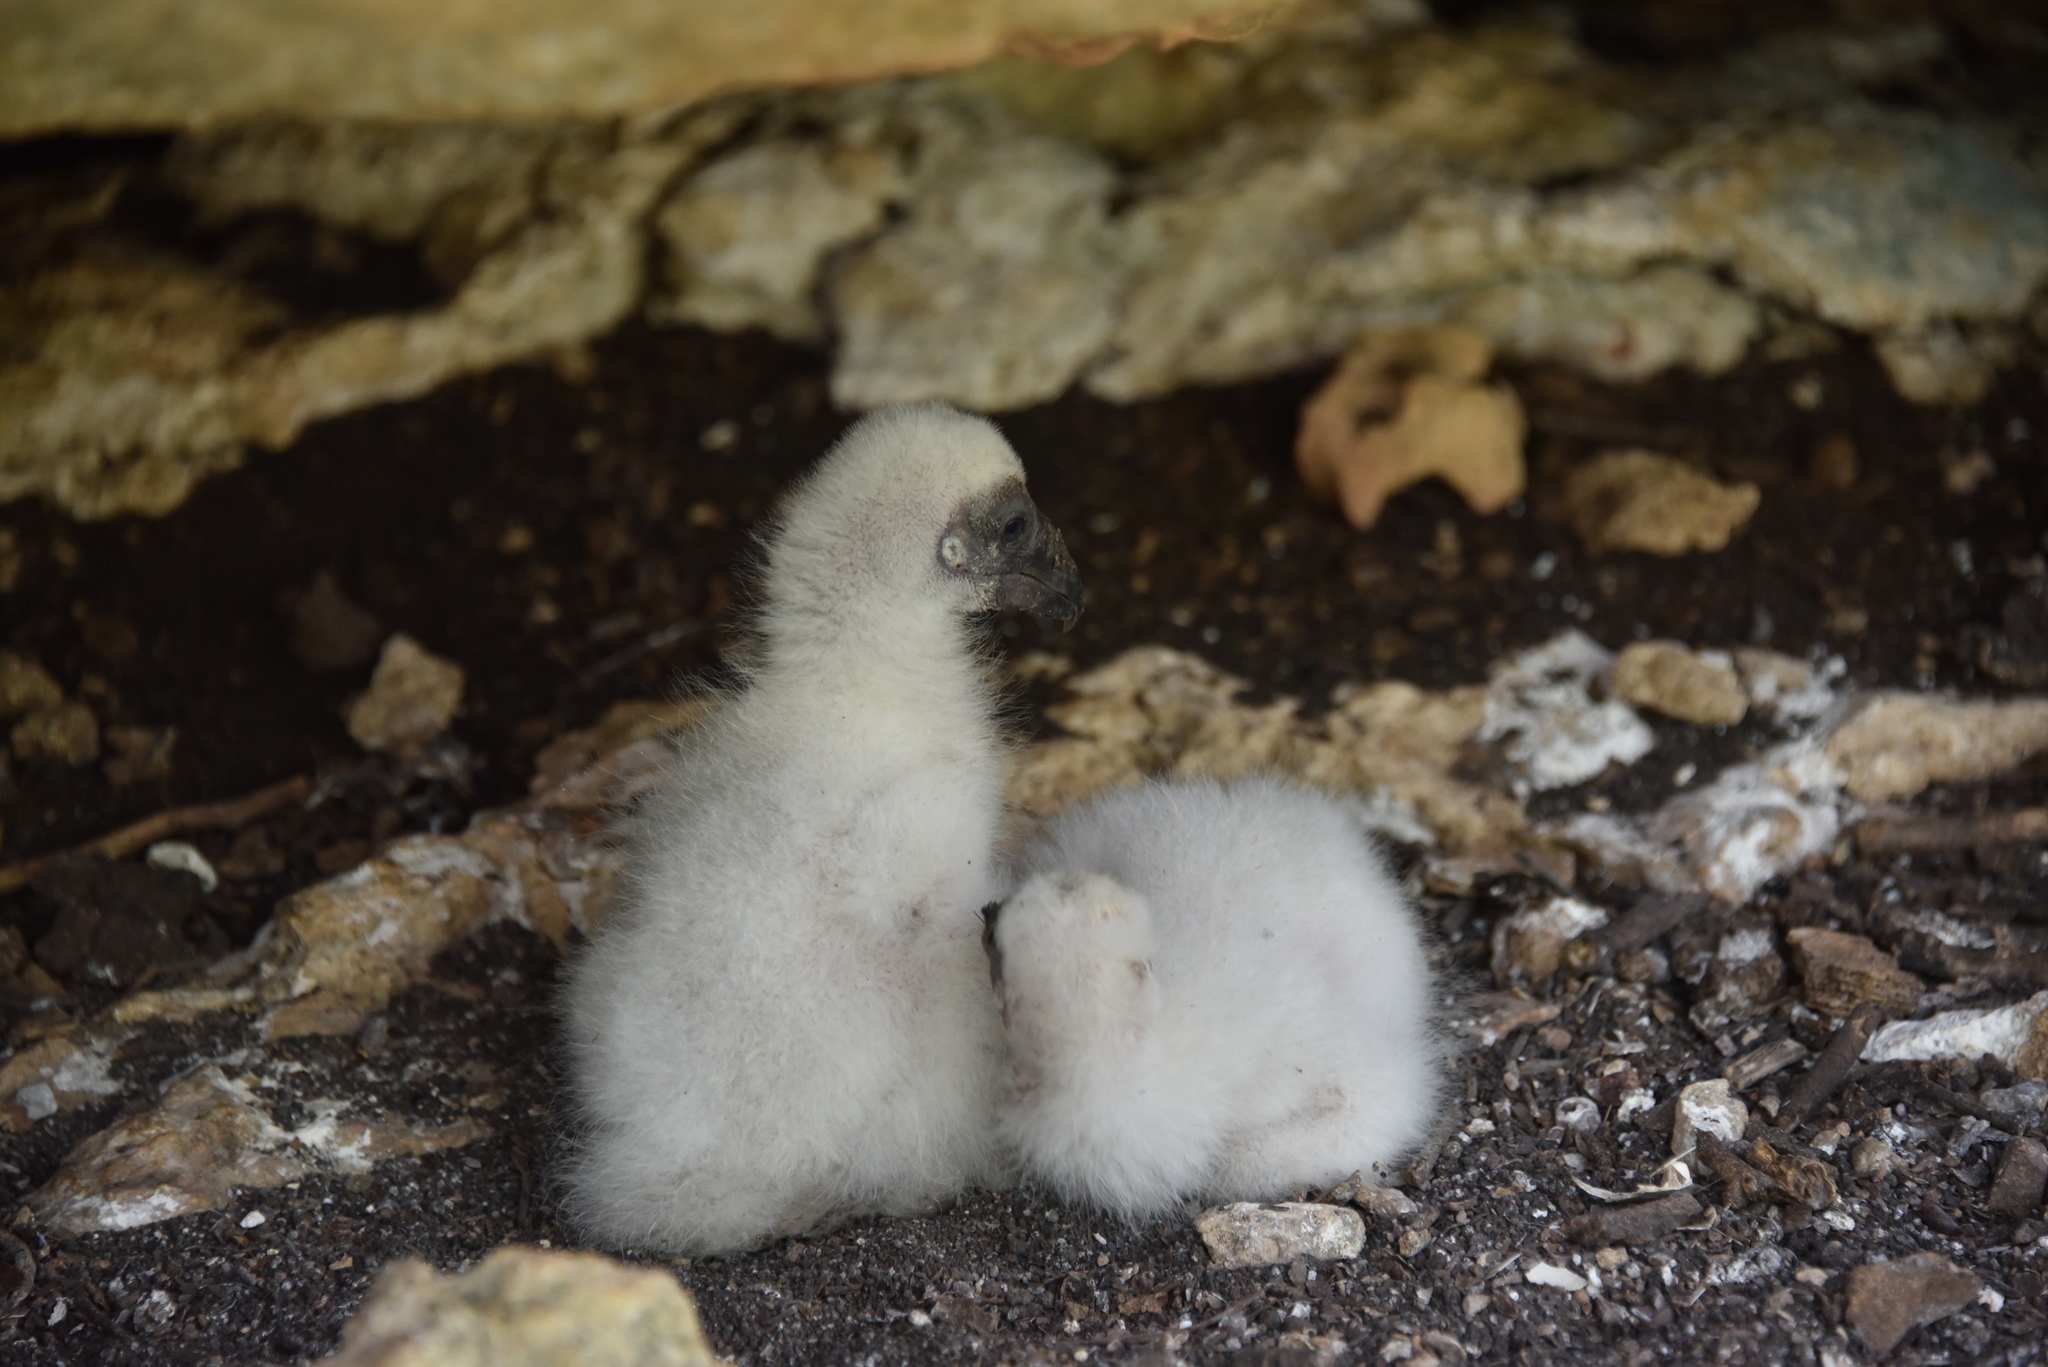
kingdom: Animalia
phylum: Chordata
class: Aves
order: Accipitriformes
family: Cathartidae
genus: Cathartes
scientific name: Cathartes aura
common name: Turkey vulture
